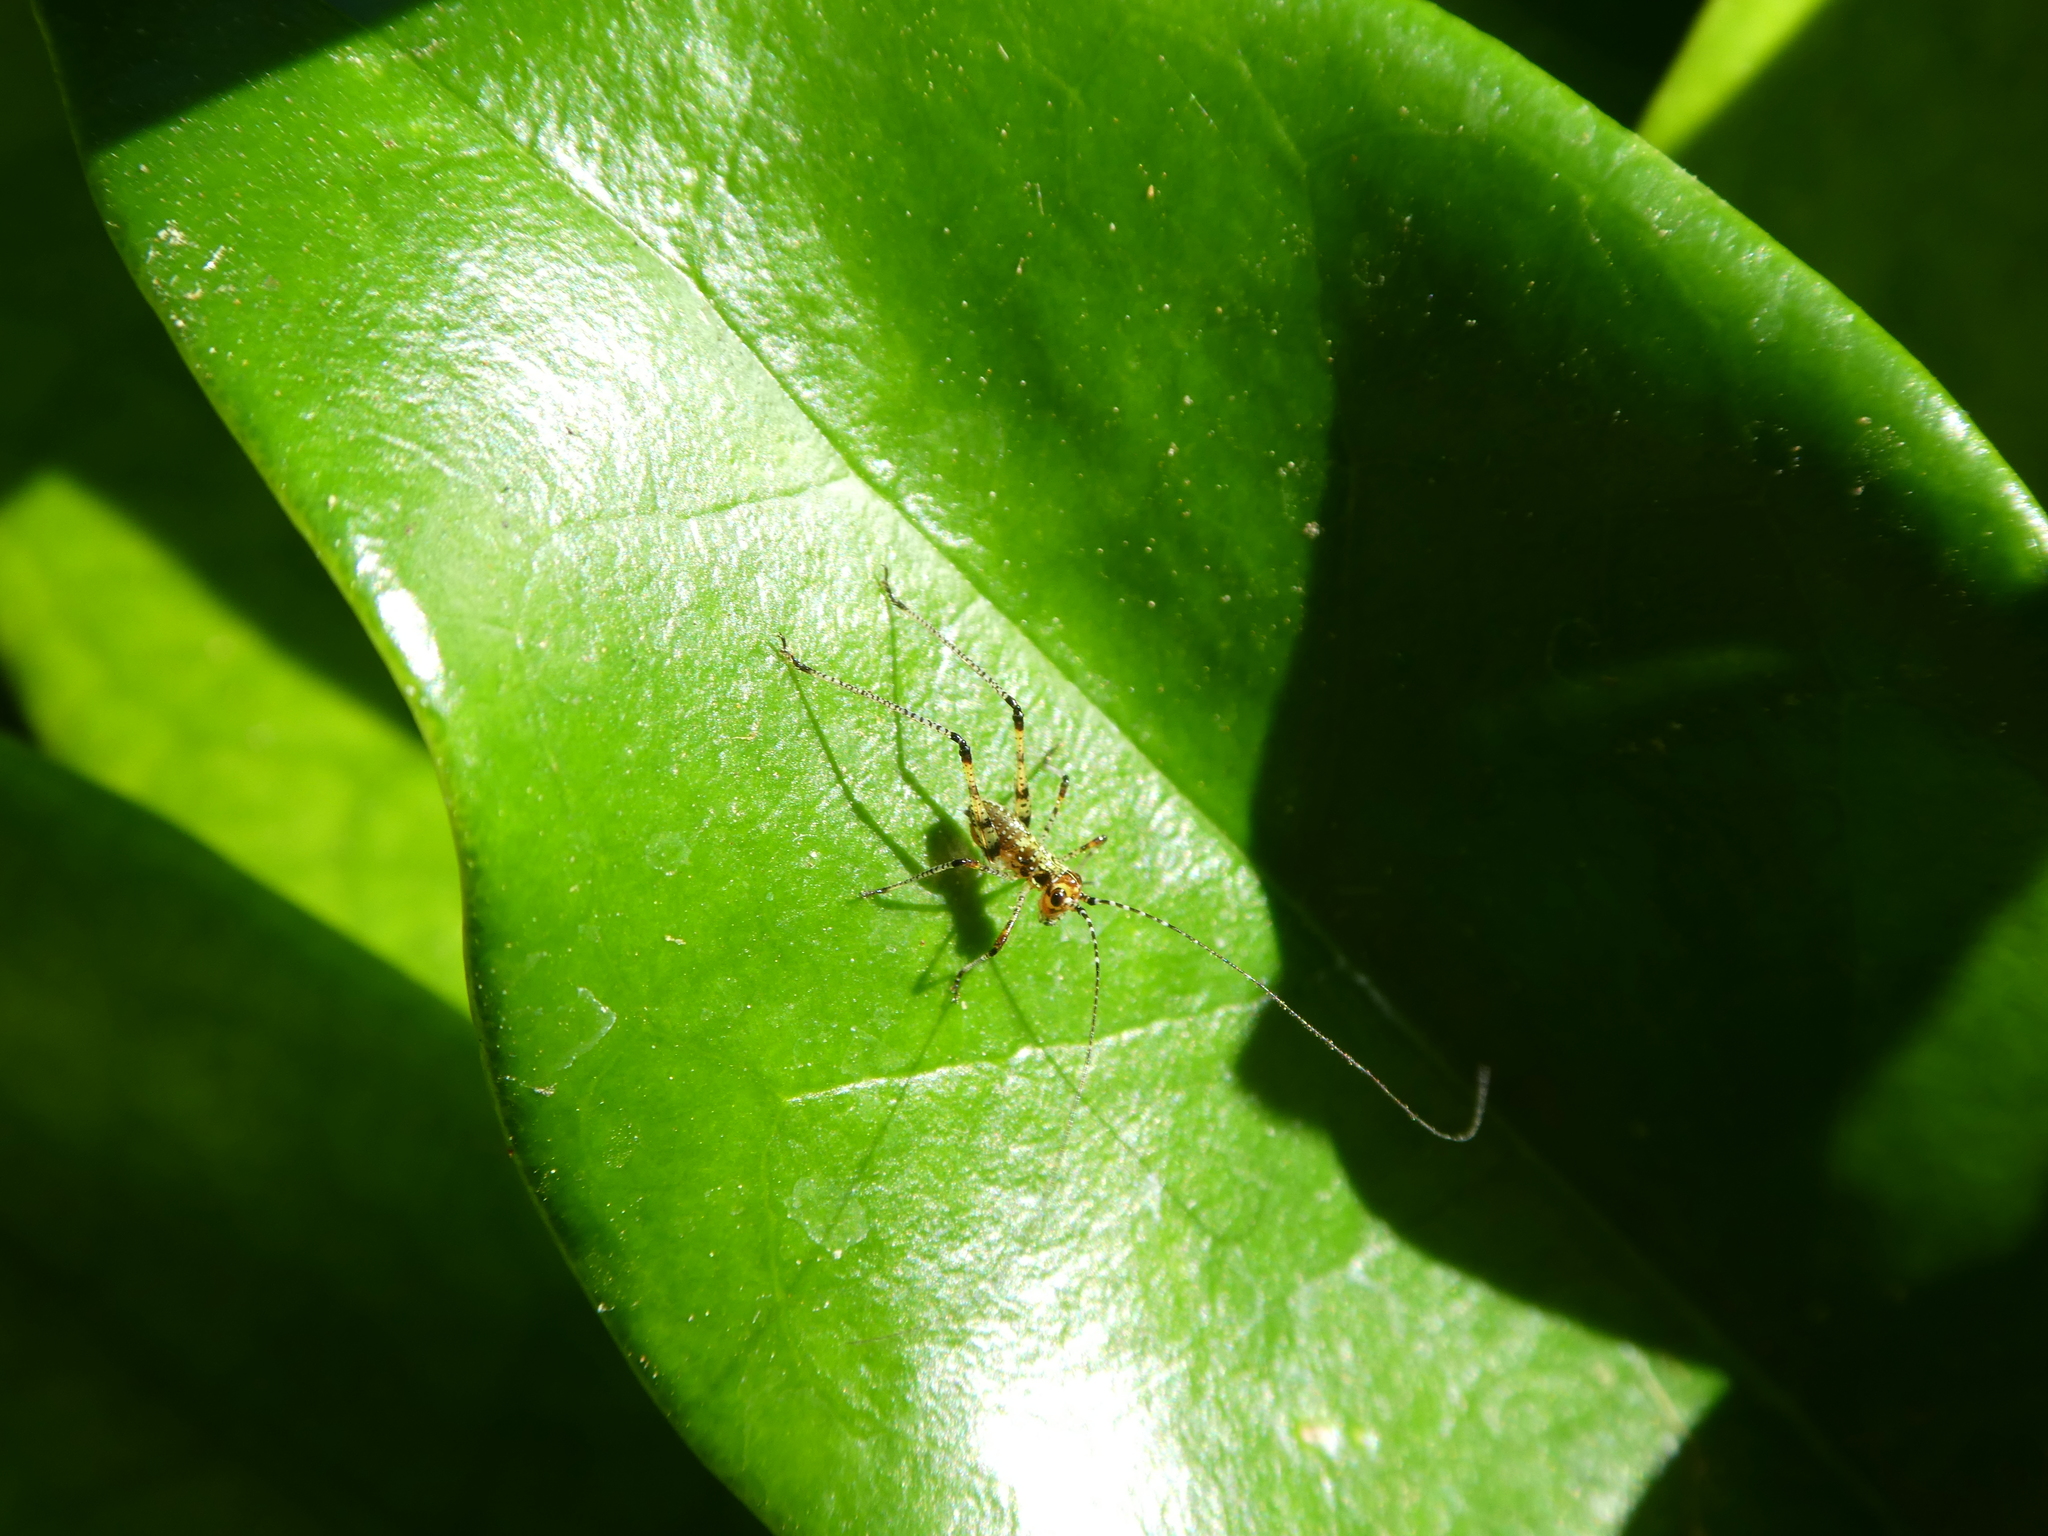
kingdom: Animalia
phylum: Arthropoda
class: Insecta
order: Orthoptera
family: Tettigoniidae
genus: Phaneroptera
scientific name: Phaneroptera nana
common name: Southern sickle bush-cricket
